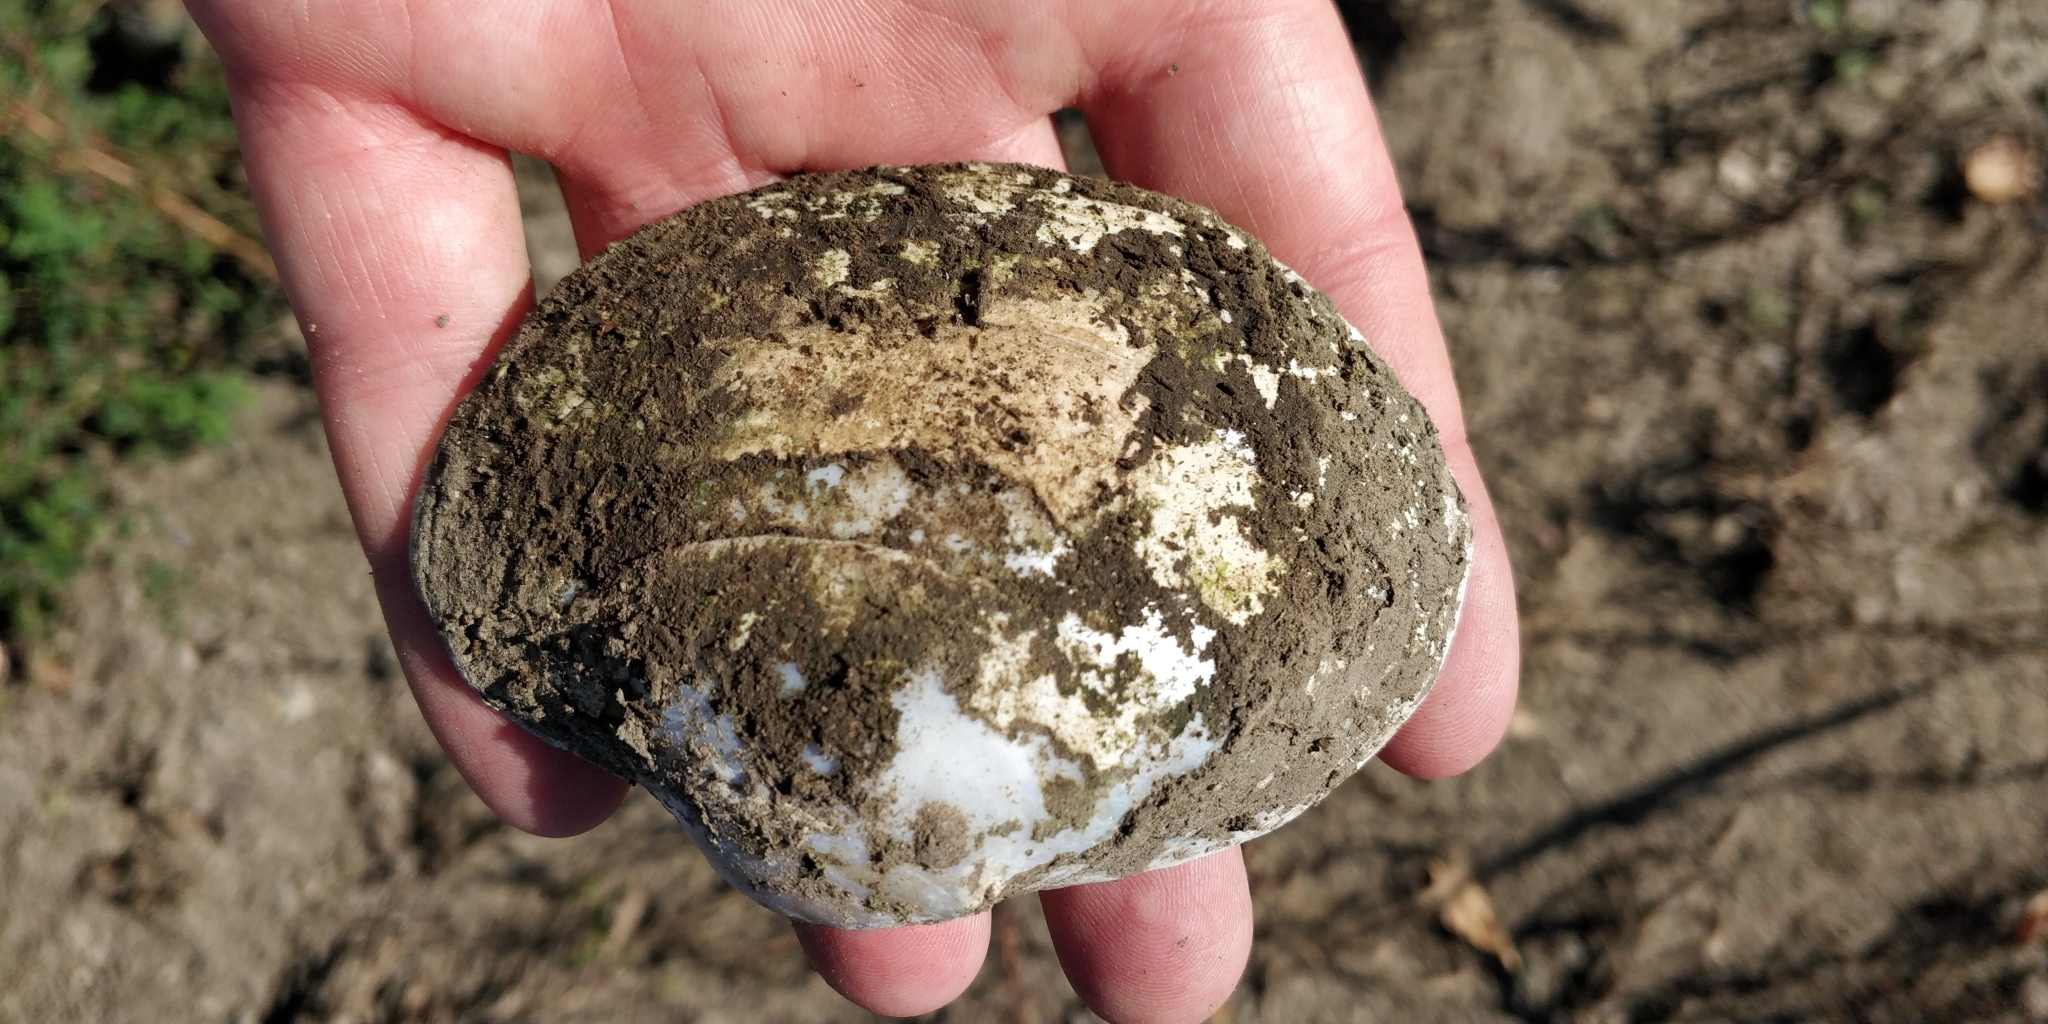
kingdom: Animalia
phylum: Mollusca
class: Bivalvia
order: Unionida
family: Unionidae
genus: Lampsilis
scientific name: Lampsilis cardium
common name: Plain pocketbook
